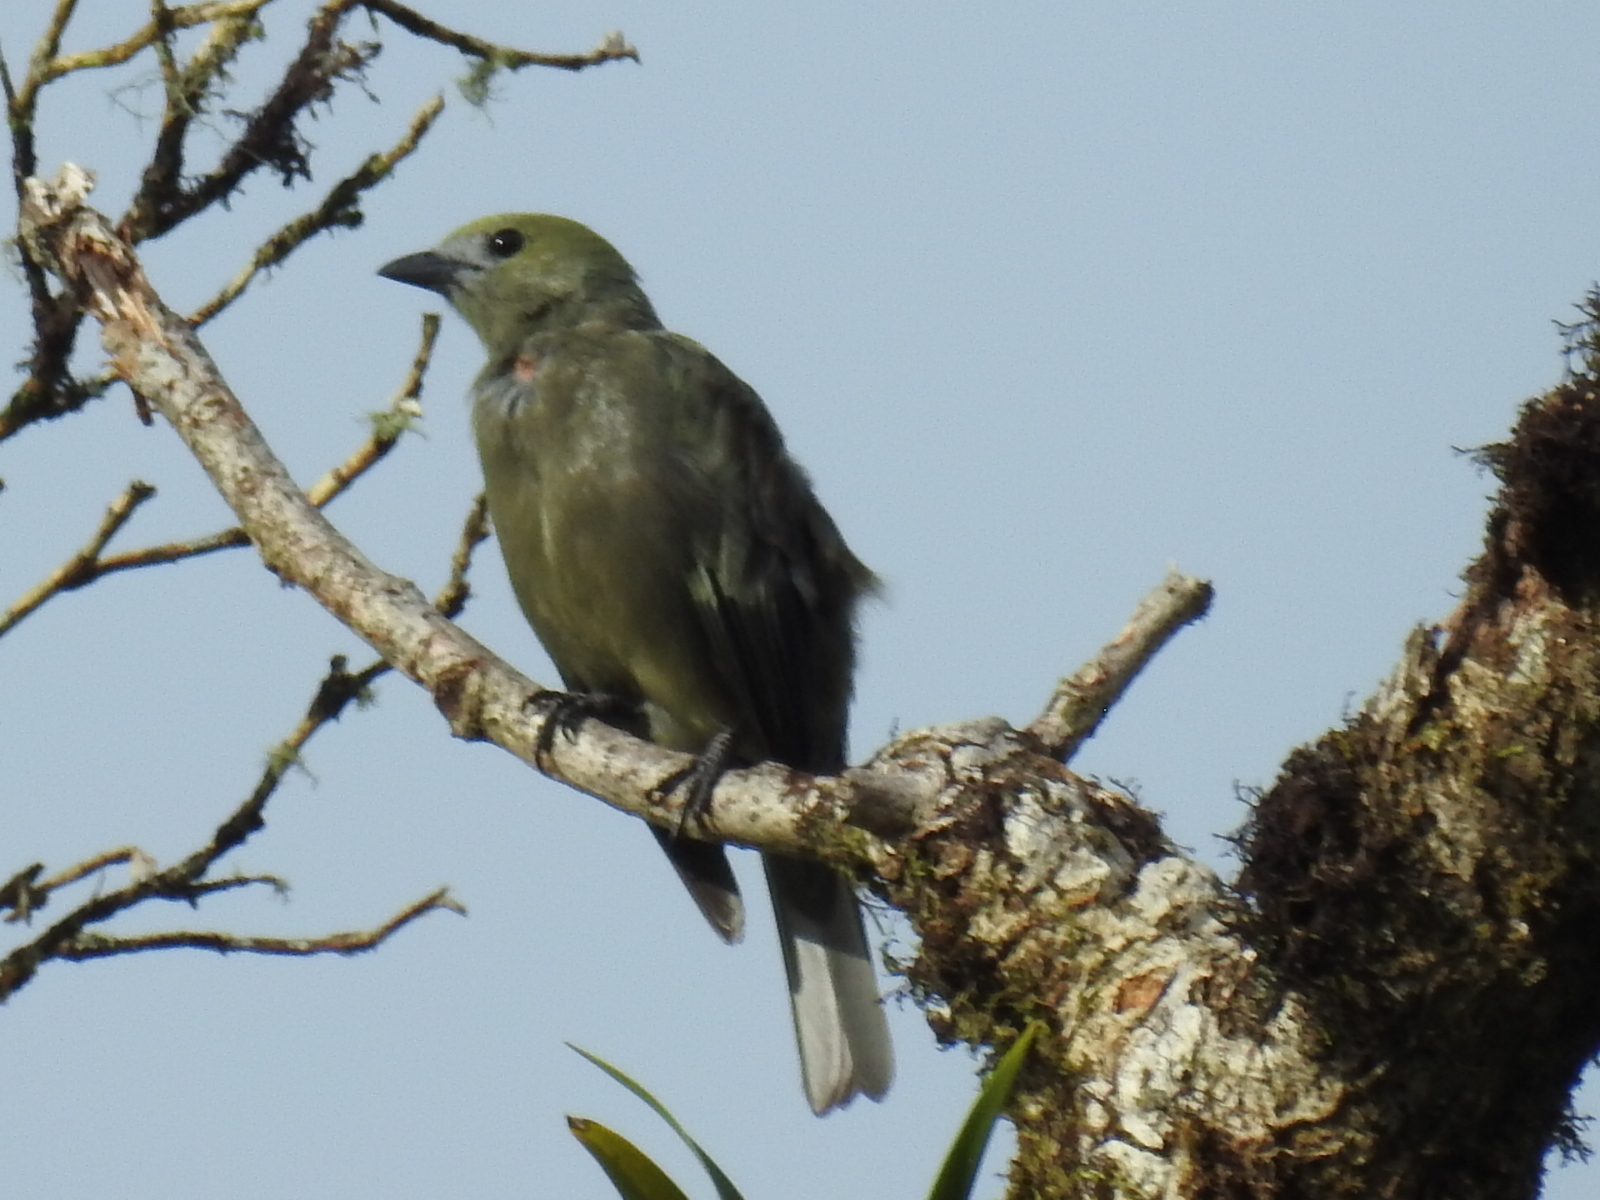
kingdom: Animalia
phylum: Chordata
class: Aves
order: Passeriformes
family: Thraupidae
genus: Thraupis
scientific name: Thraupis palmarum
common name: Palm tanager
